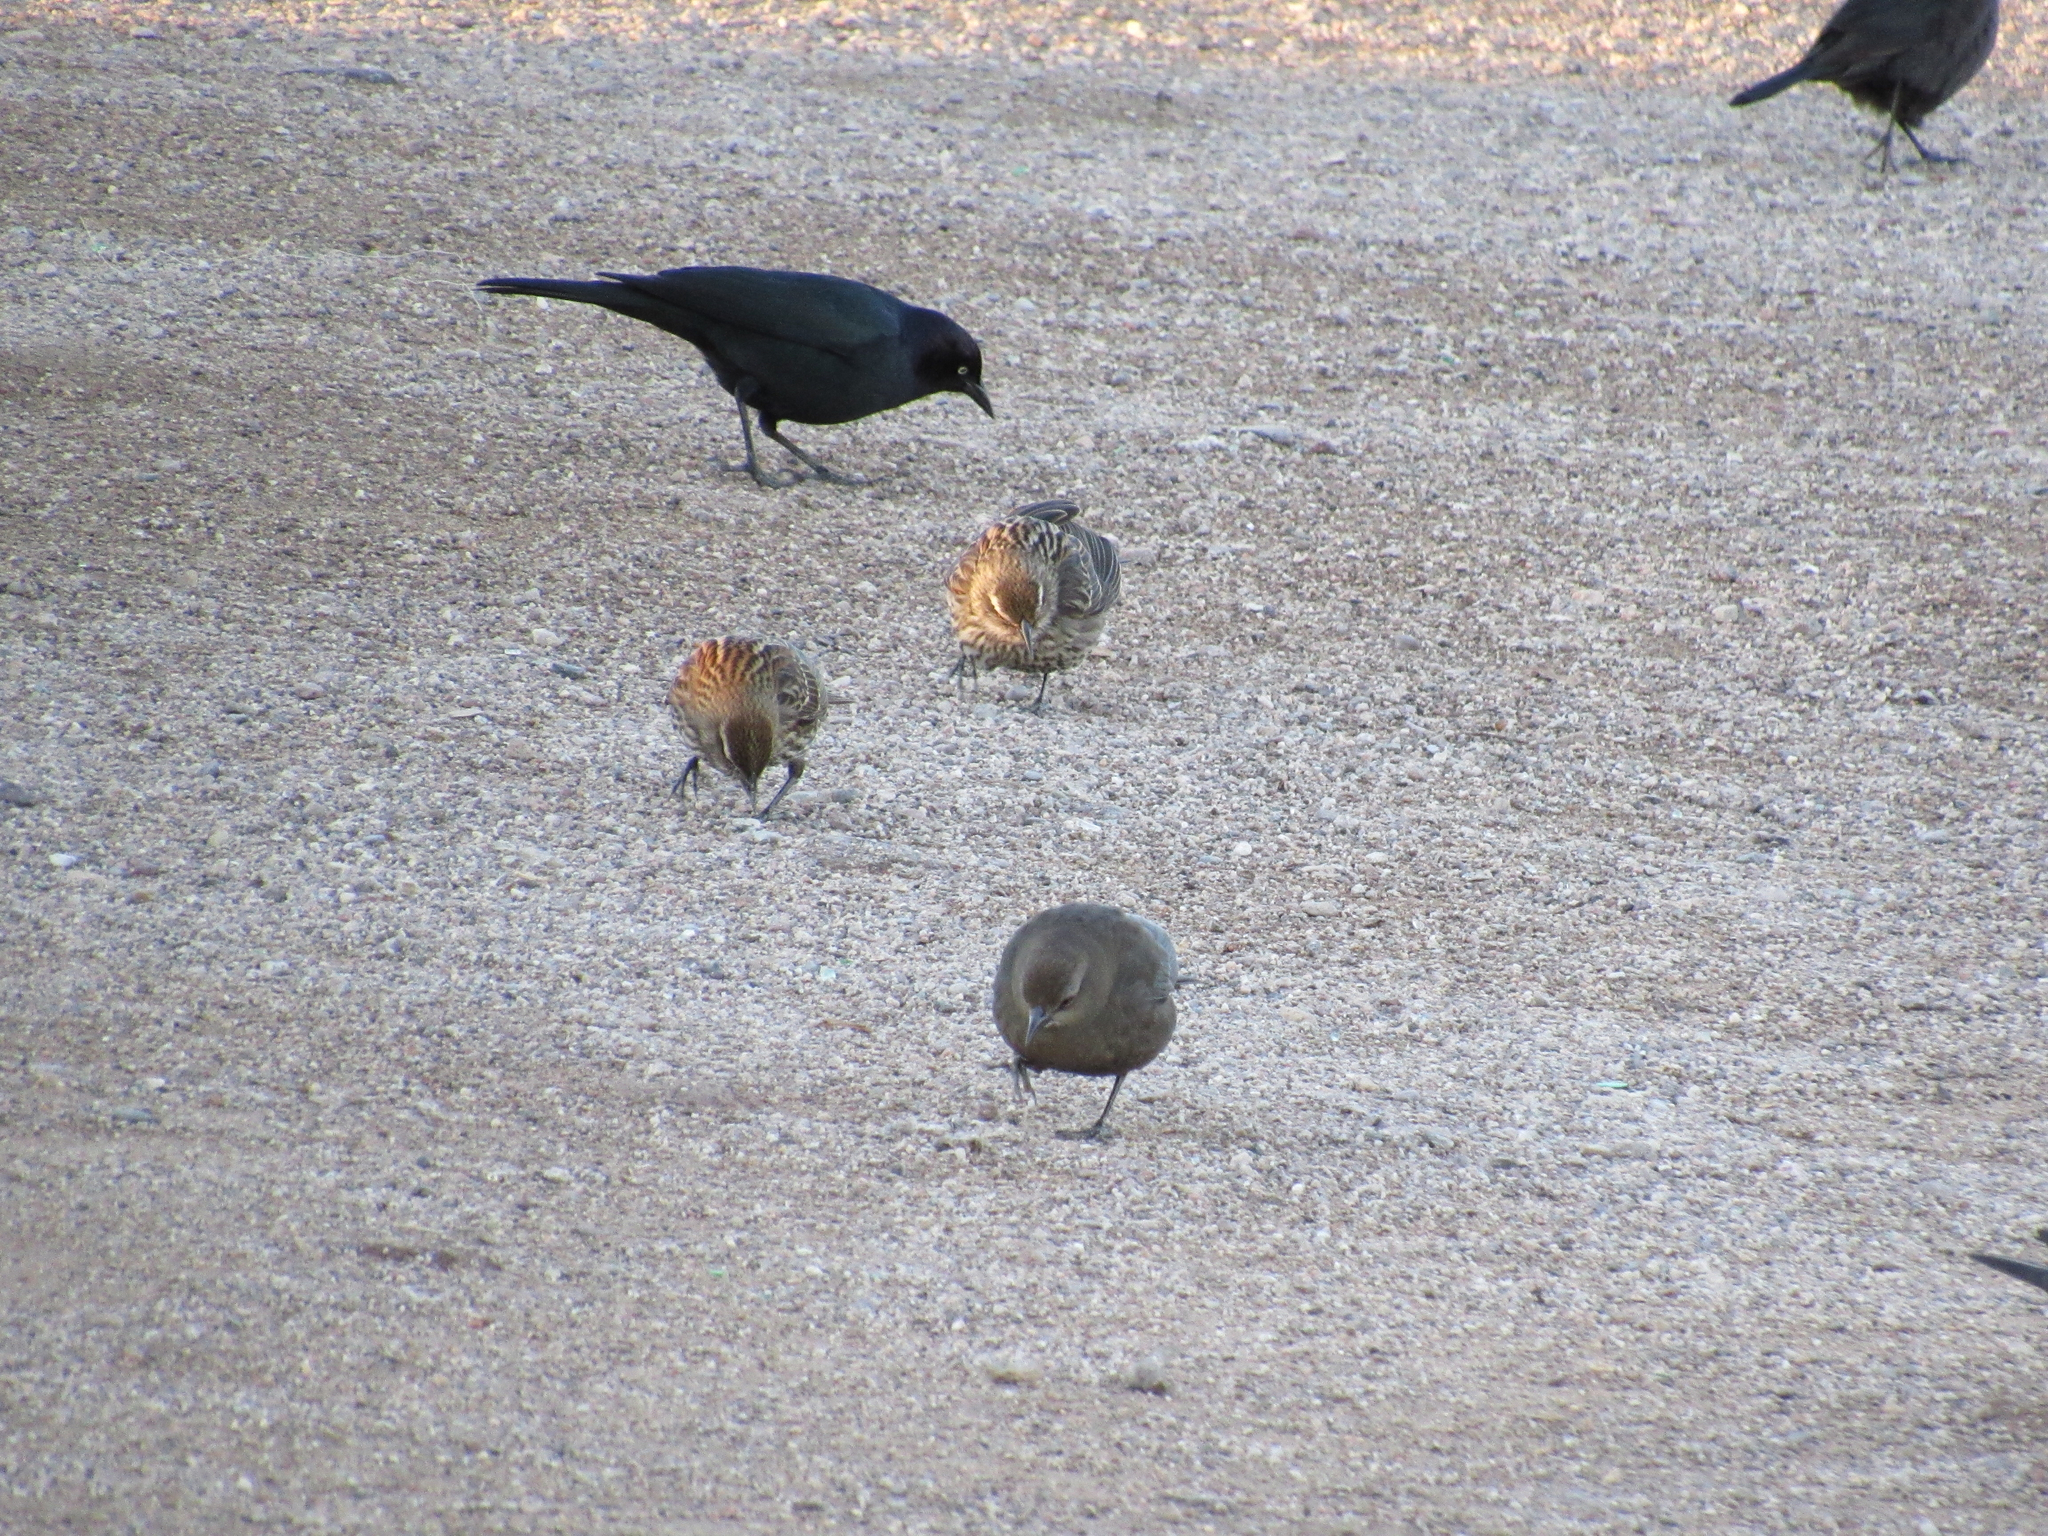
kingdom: Animalia
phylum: Chordata
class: Aves
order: Passeriformes
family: Icteridae
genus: Agelaius
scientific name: Agelaius phoeniceus
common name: Red-winged blackbird
